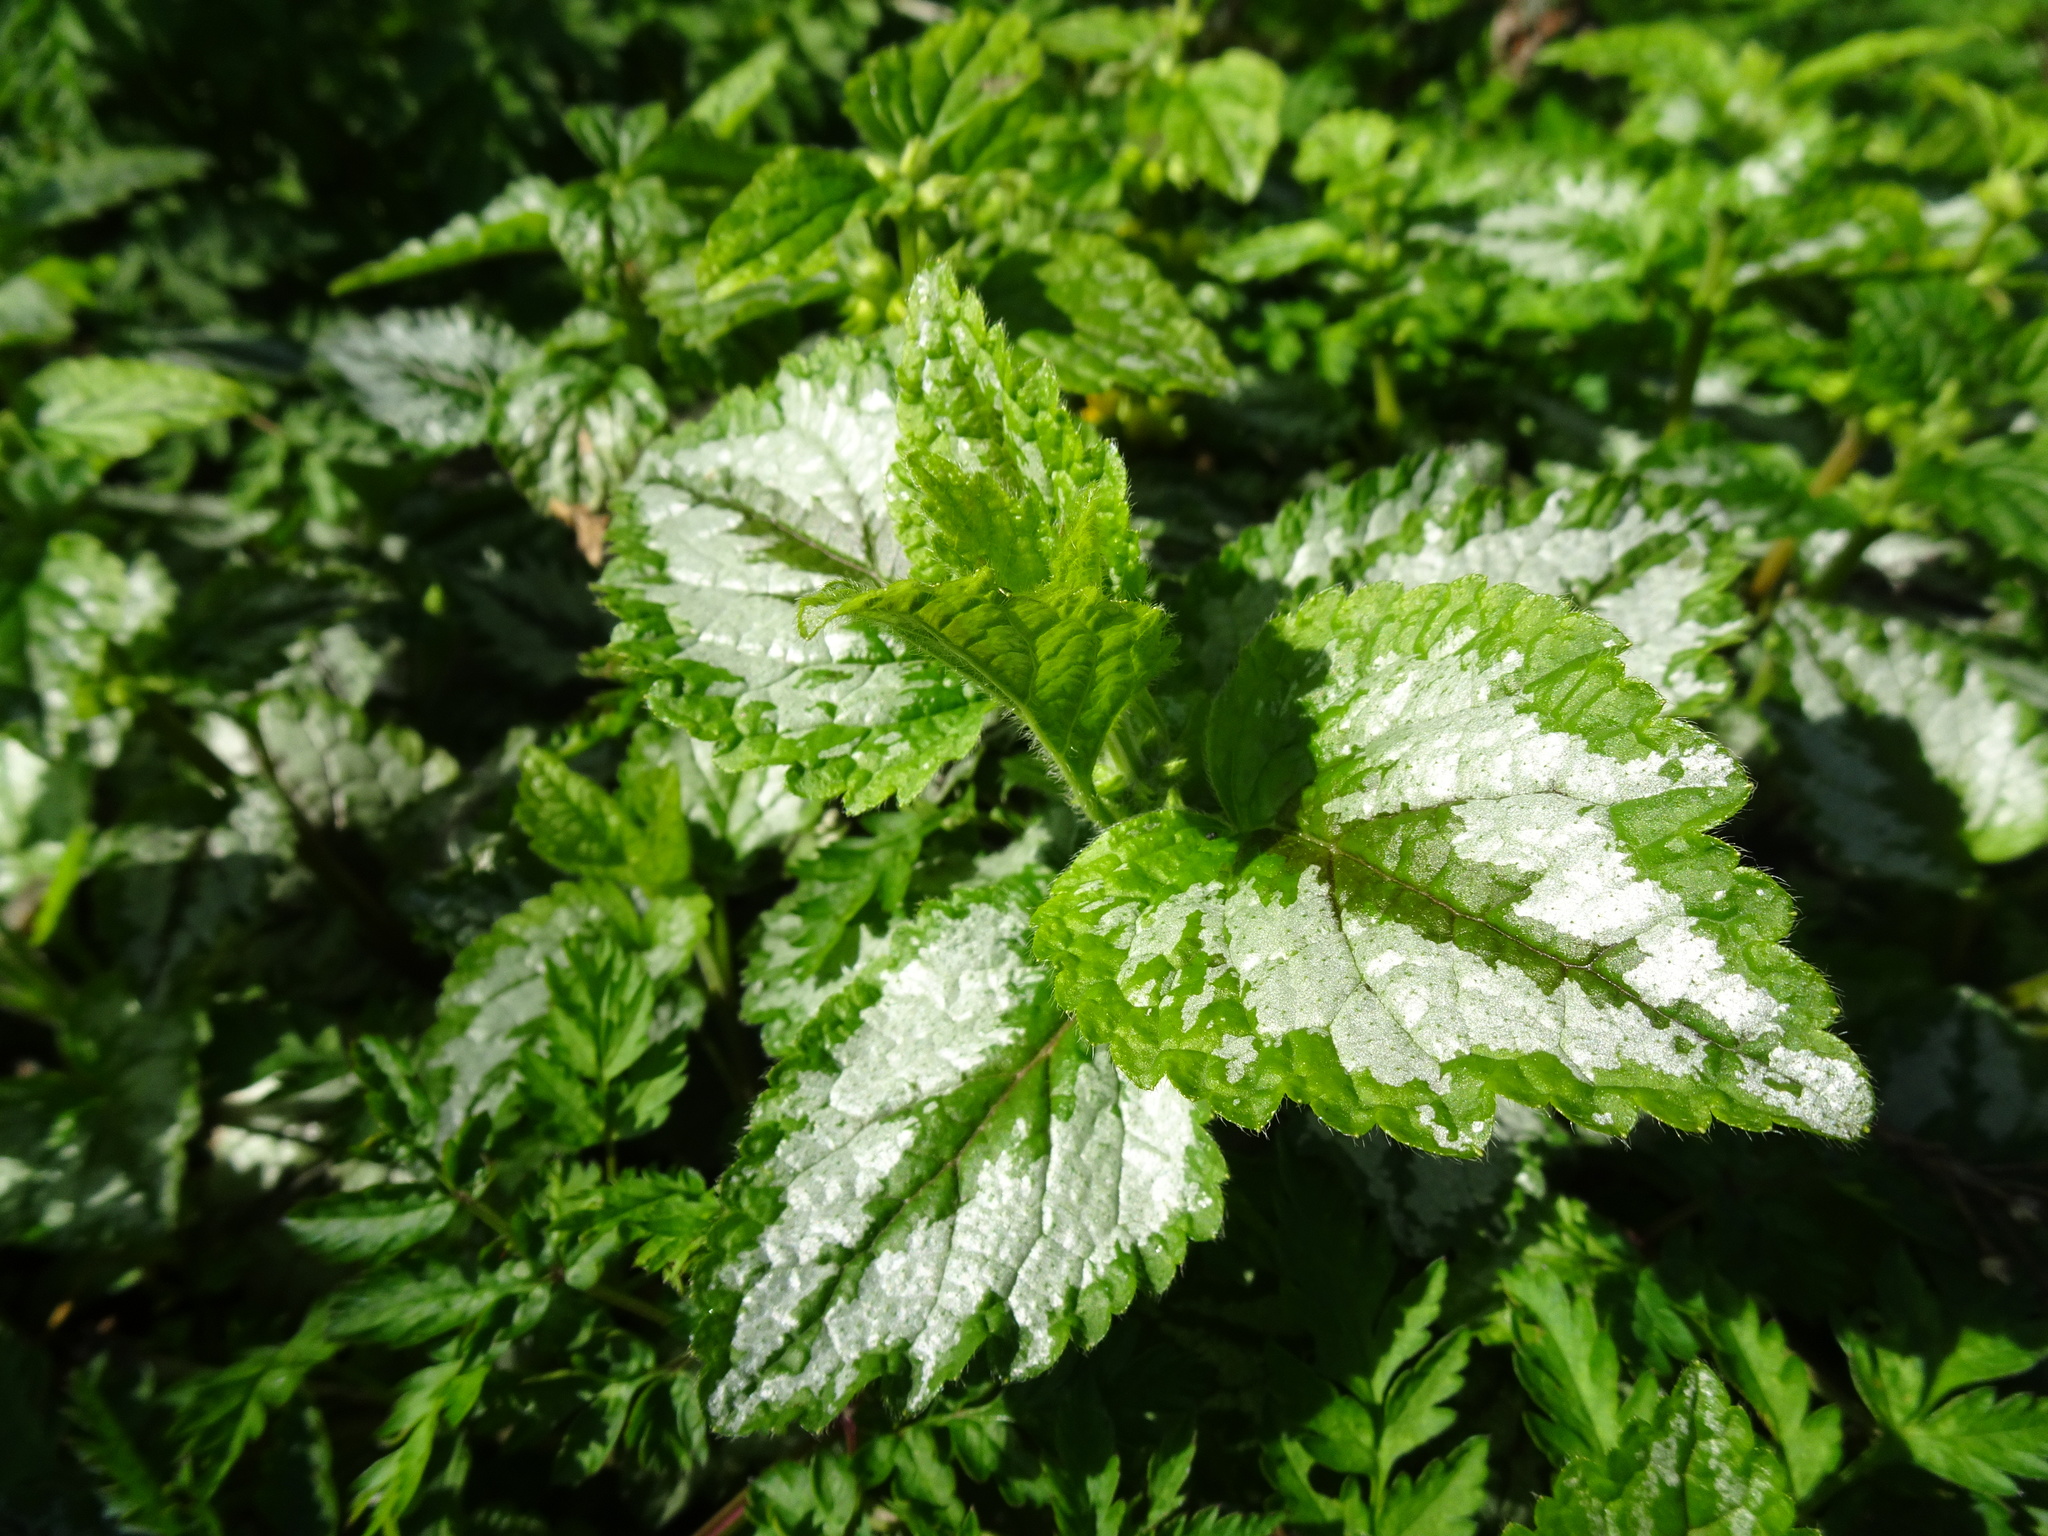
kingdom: Plantae
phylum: Tracheophyta
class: Magnoliopsida
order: Lamiales
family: Lamiaceae
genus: Lamium
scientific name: Lamium galeobdolon
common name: Yellow archangel
